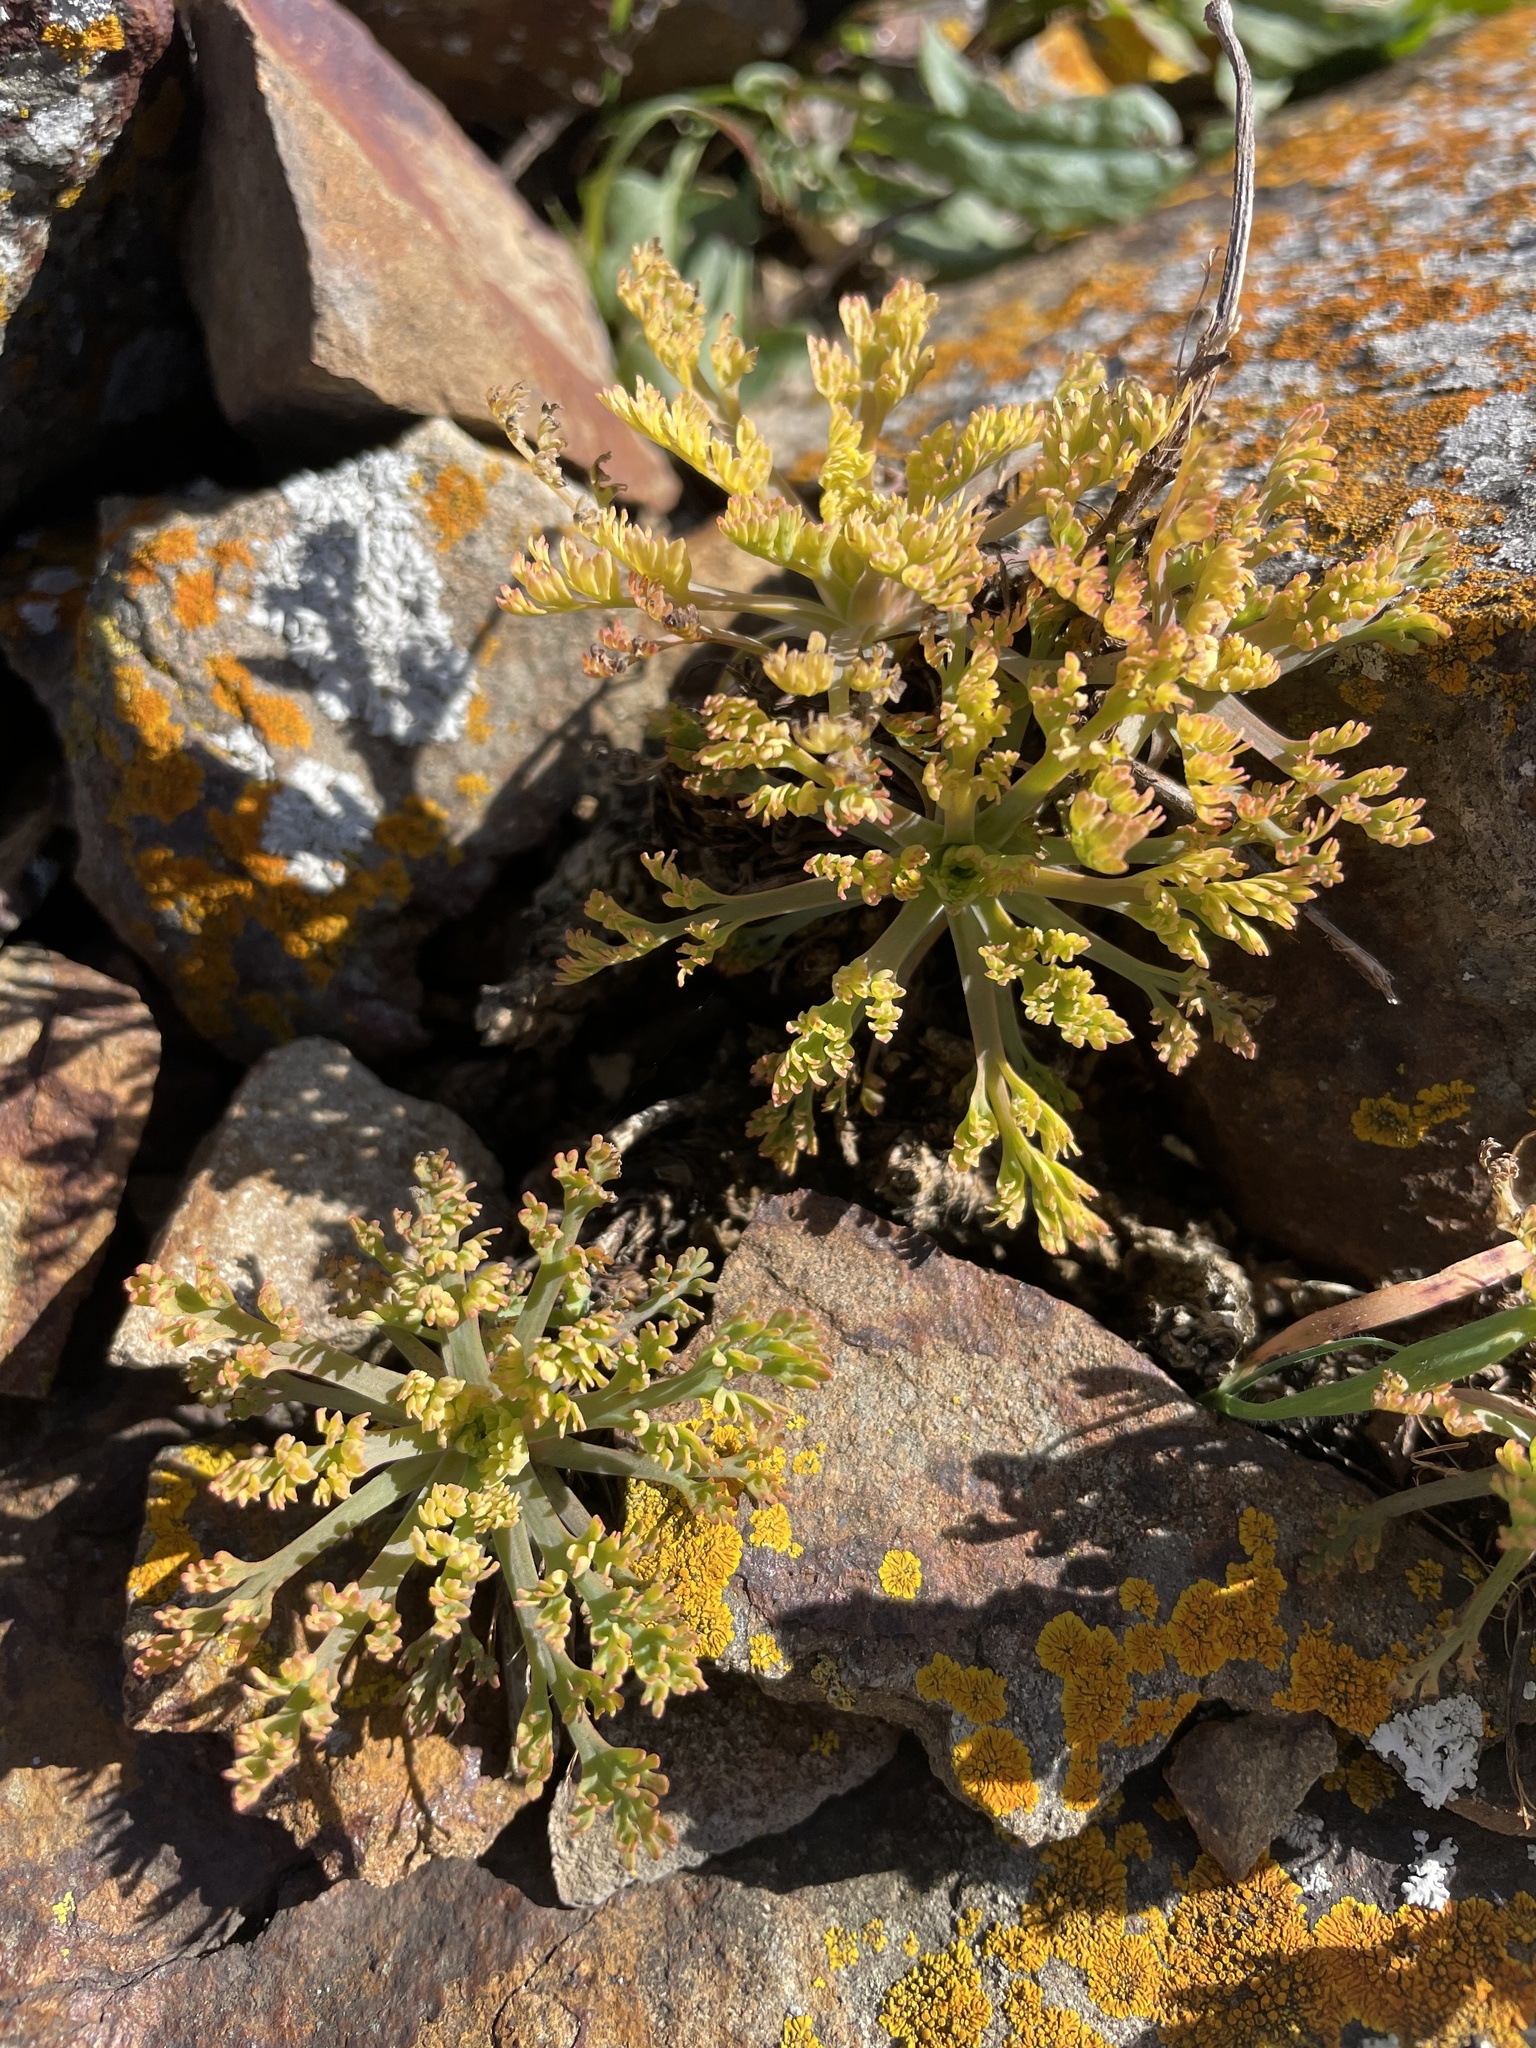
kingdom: Plantae
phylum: Tracheophyta
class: Magnoliopsida
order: Ranunculales
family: Papaveraceae
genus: Eschscholzia
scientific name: Eschscholzia californica
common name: California poppy
